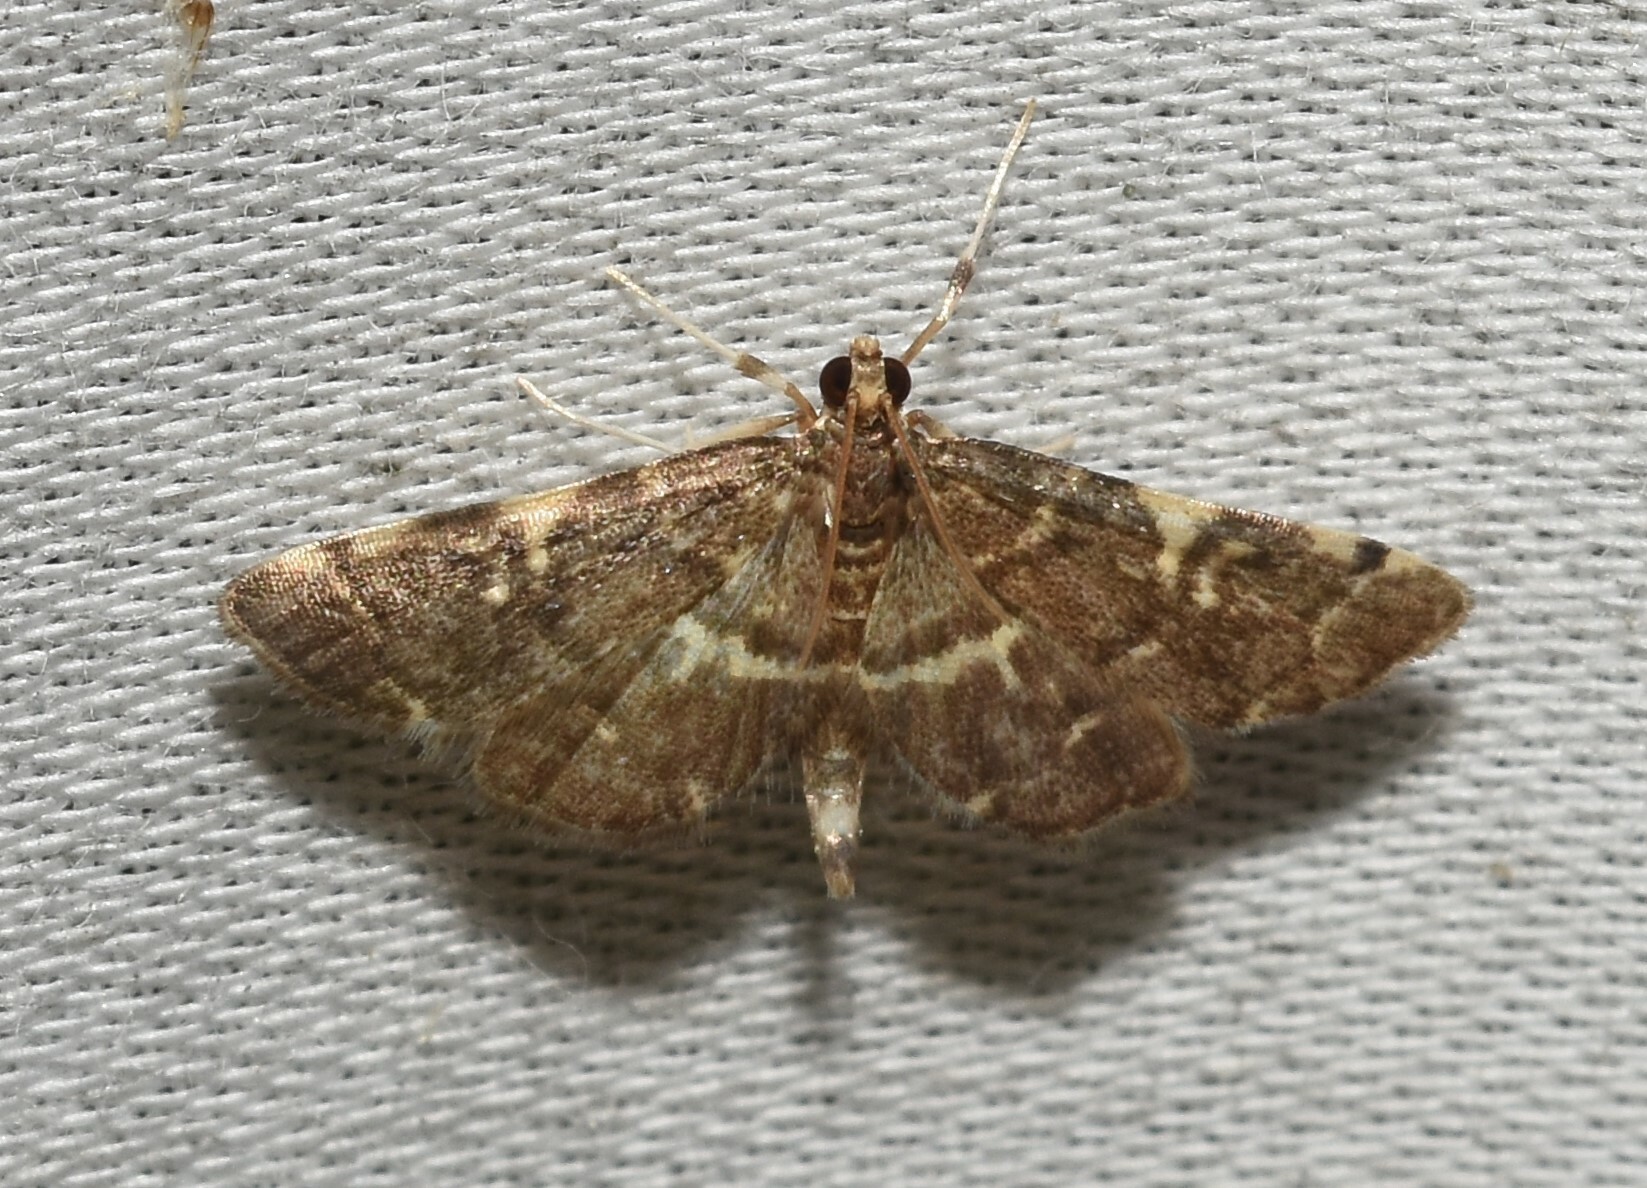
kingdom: Animalia
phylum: Arthropoda
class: Insecta
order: Lepidoptera
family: Crambidae
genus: Anageshna
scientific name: Anageshna primordialis
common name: Yellow-spotted webworm moth
